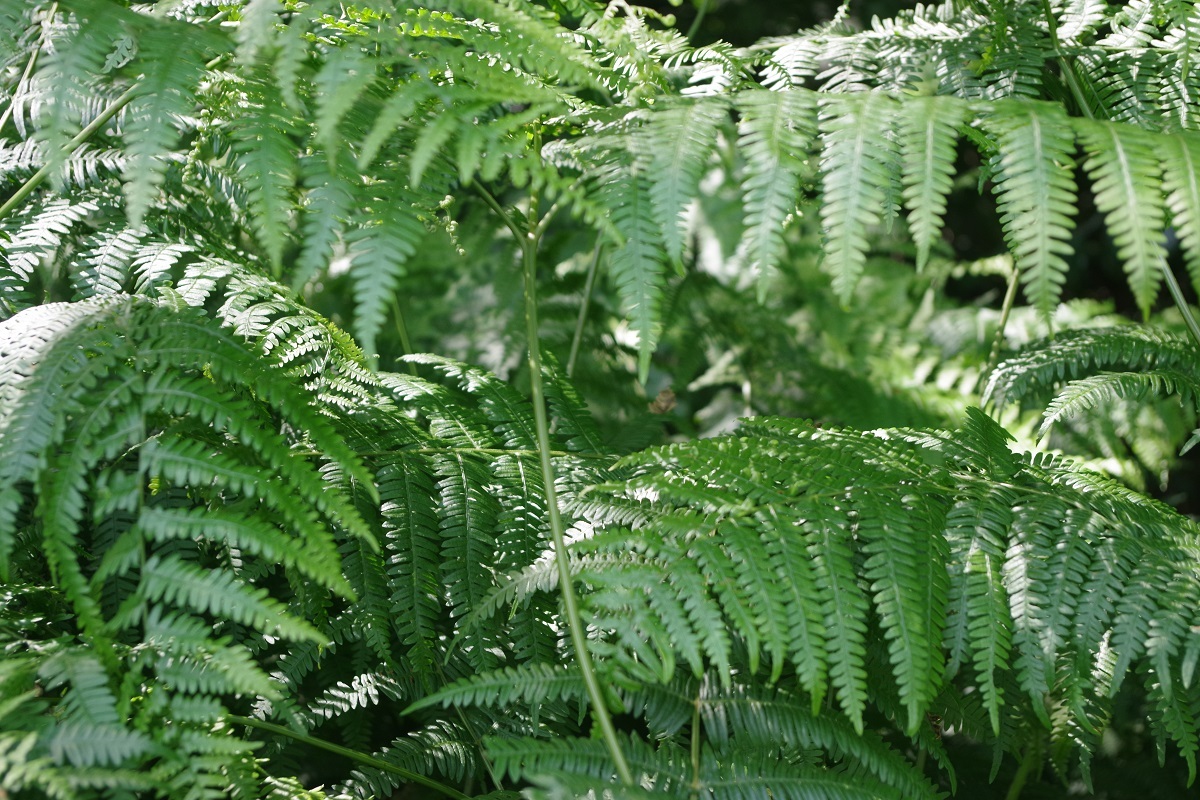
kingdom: Plantae
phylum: Tracheophyta
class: Polypodiopsida
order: Polypodiales
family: Dennstaedtiaceae
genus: Pteridium
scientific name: Pteridium aquilinum
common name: Bracken
